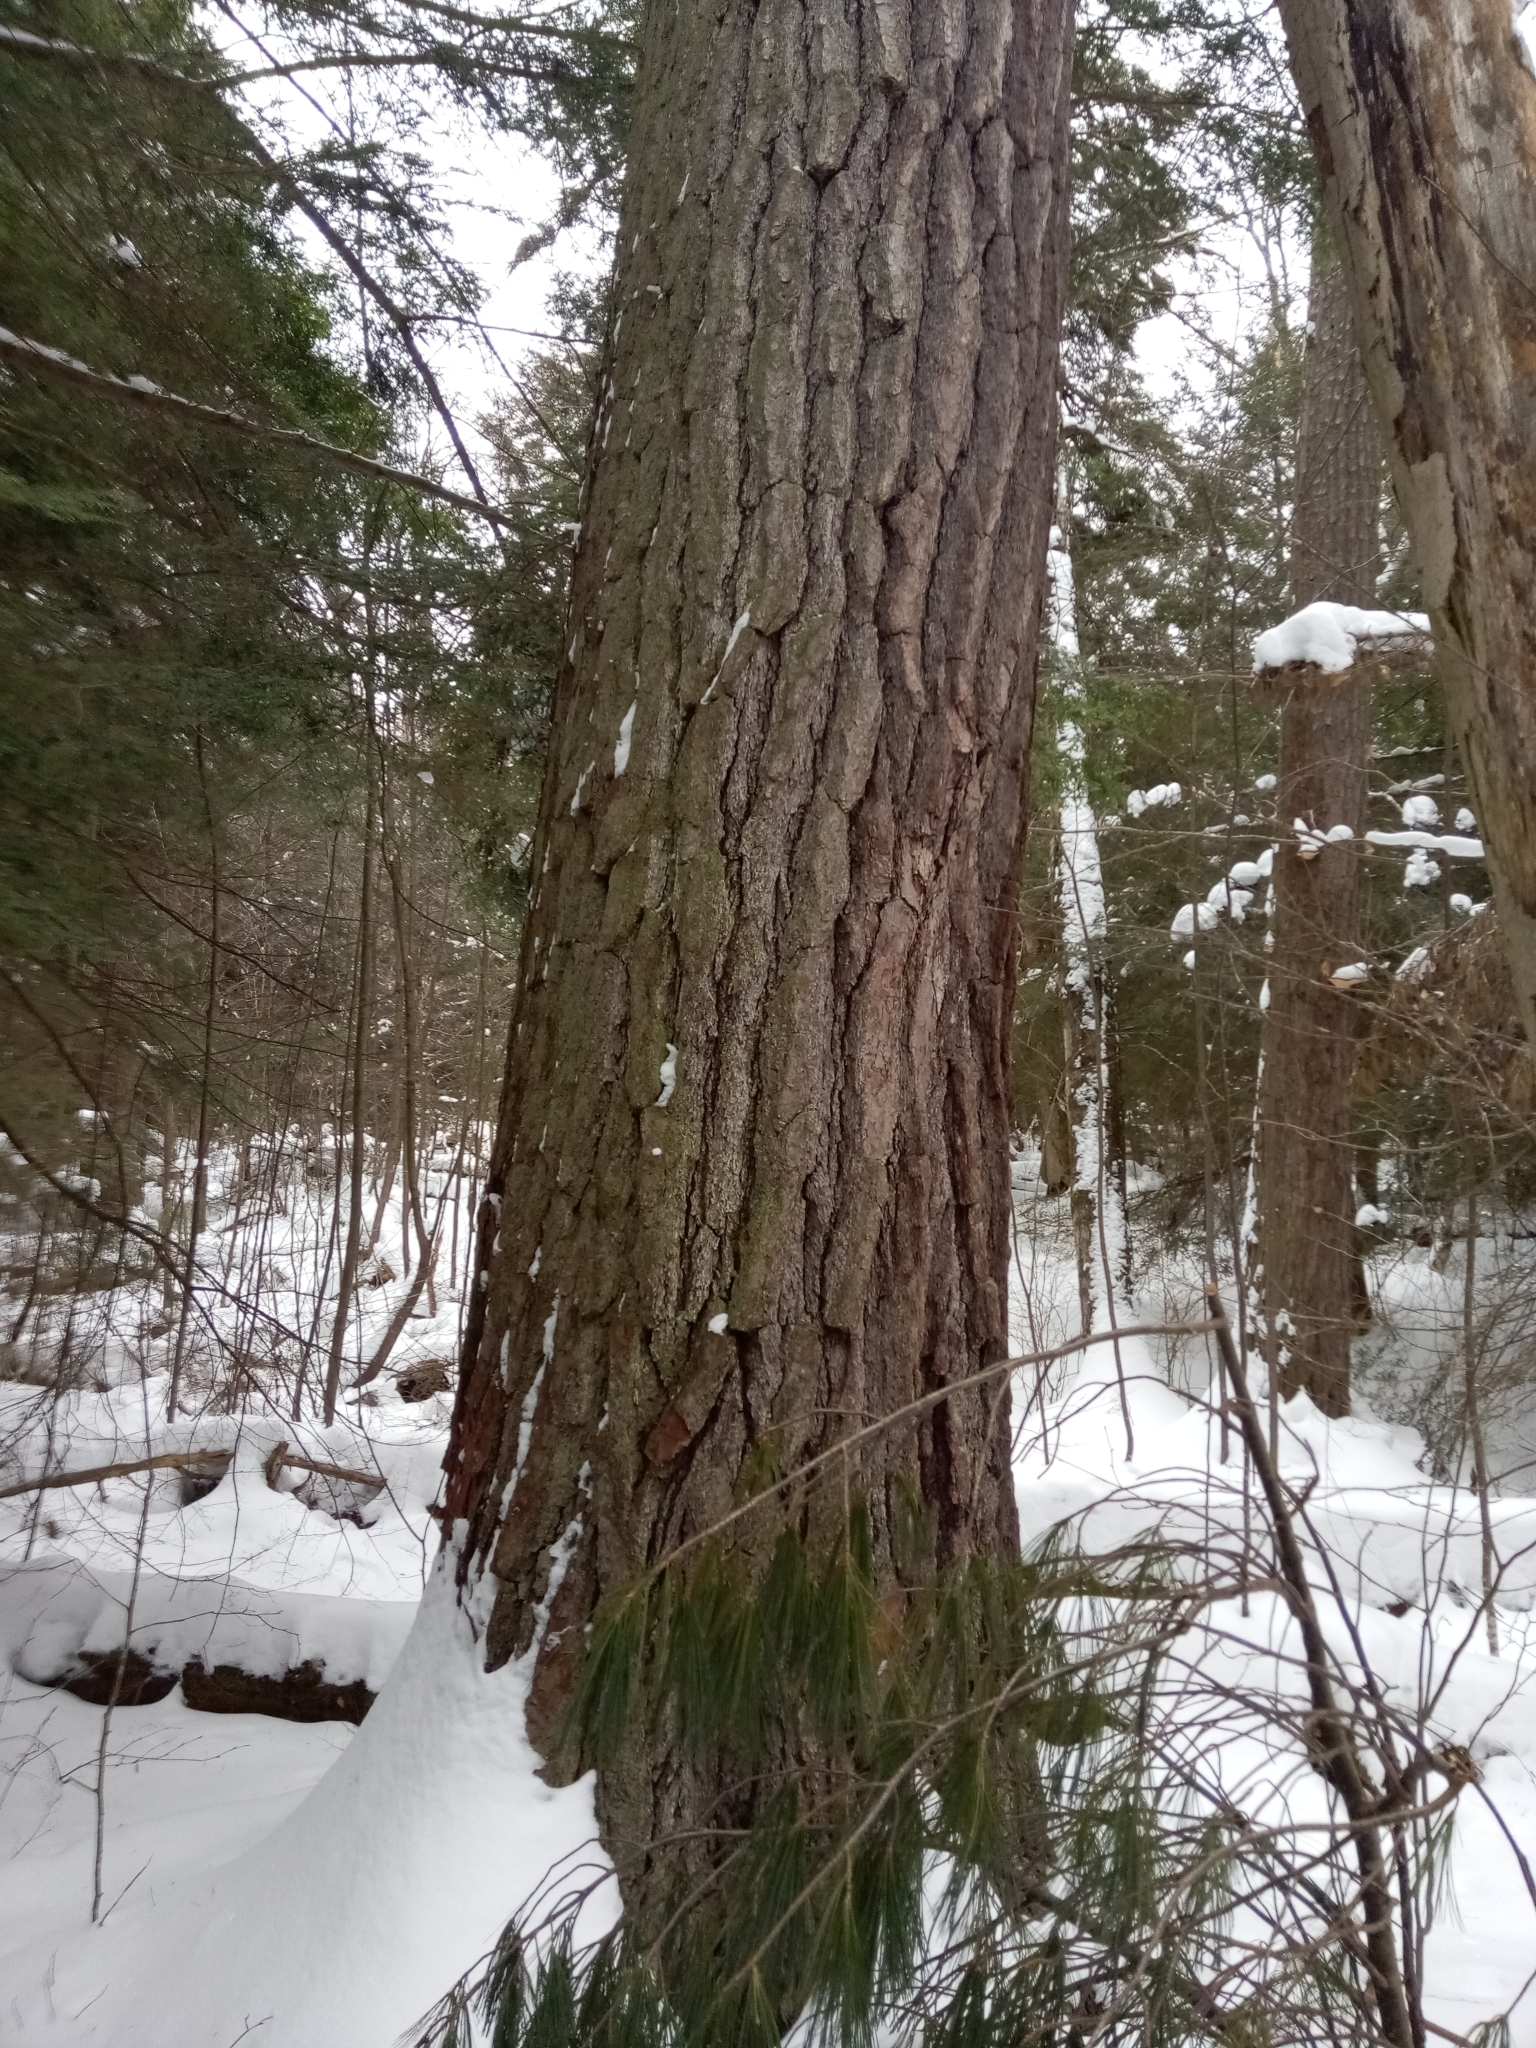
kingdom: Plantae
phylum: Tracheophyta
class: Pinopsida
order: Pinales
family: Pinaceae
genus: Pinus
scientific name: Pinus strobus
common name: Weymouth pine
